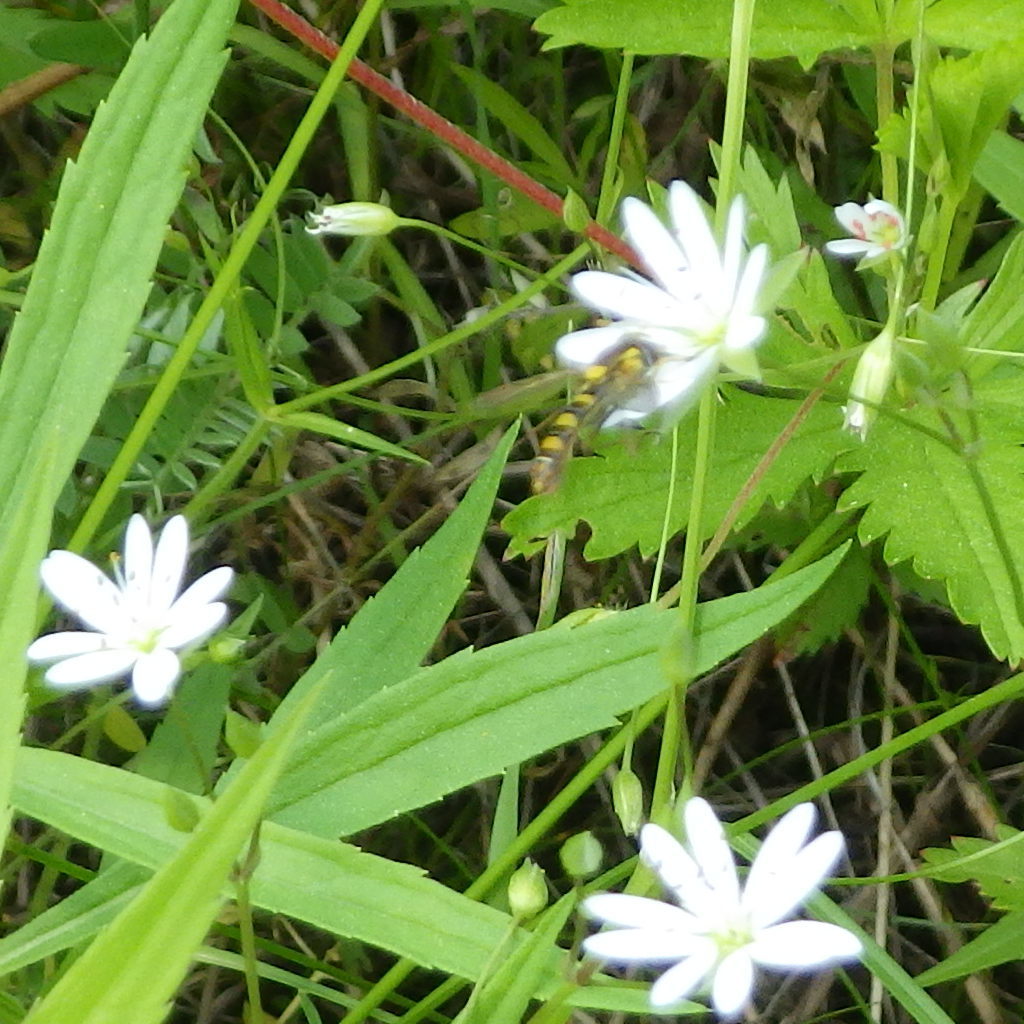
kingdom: Animalia
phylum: Arthropoda
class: Insecta
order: Diptera
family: Syrphidae
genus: Sphaerophoria
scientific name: Sphaerophoria
